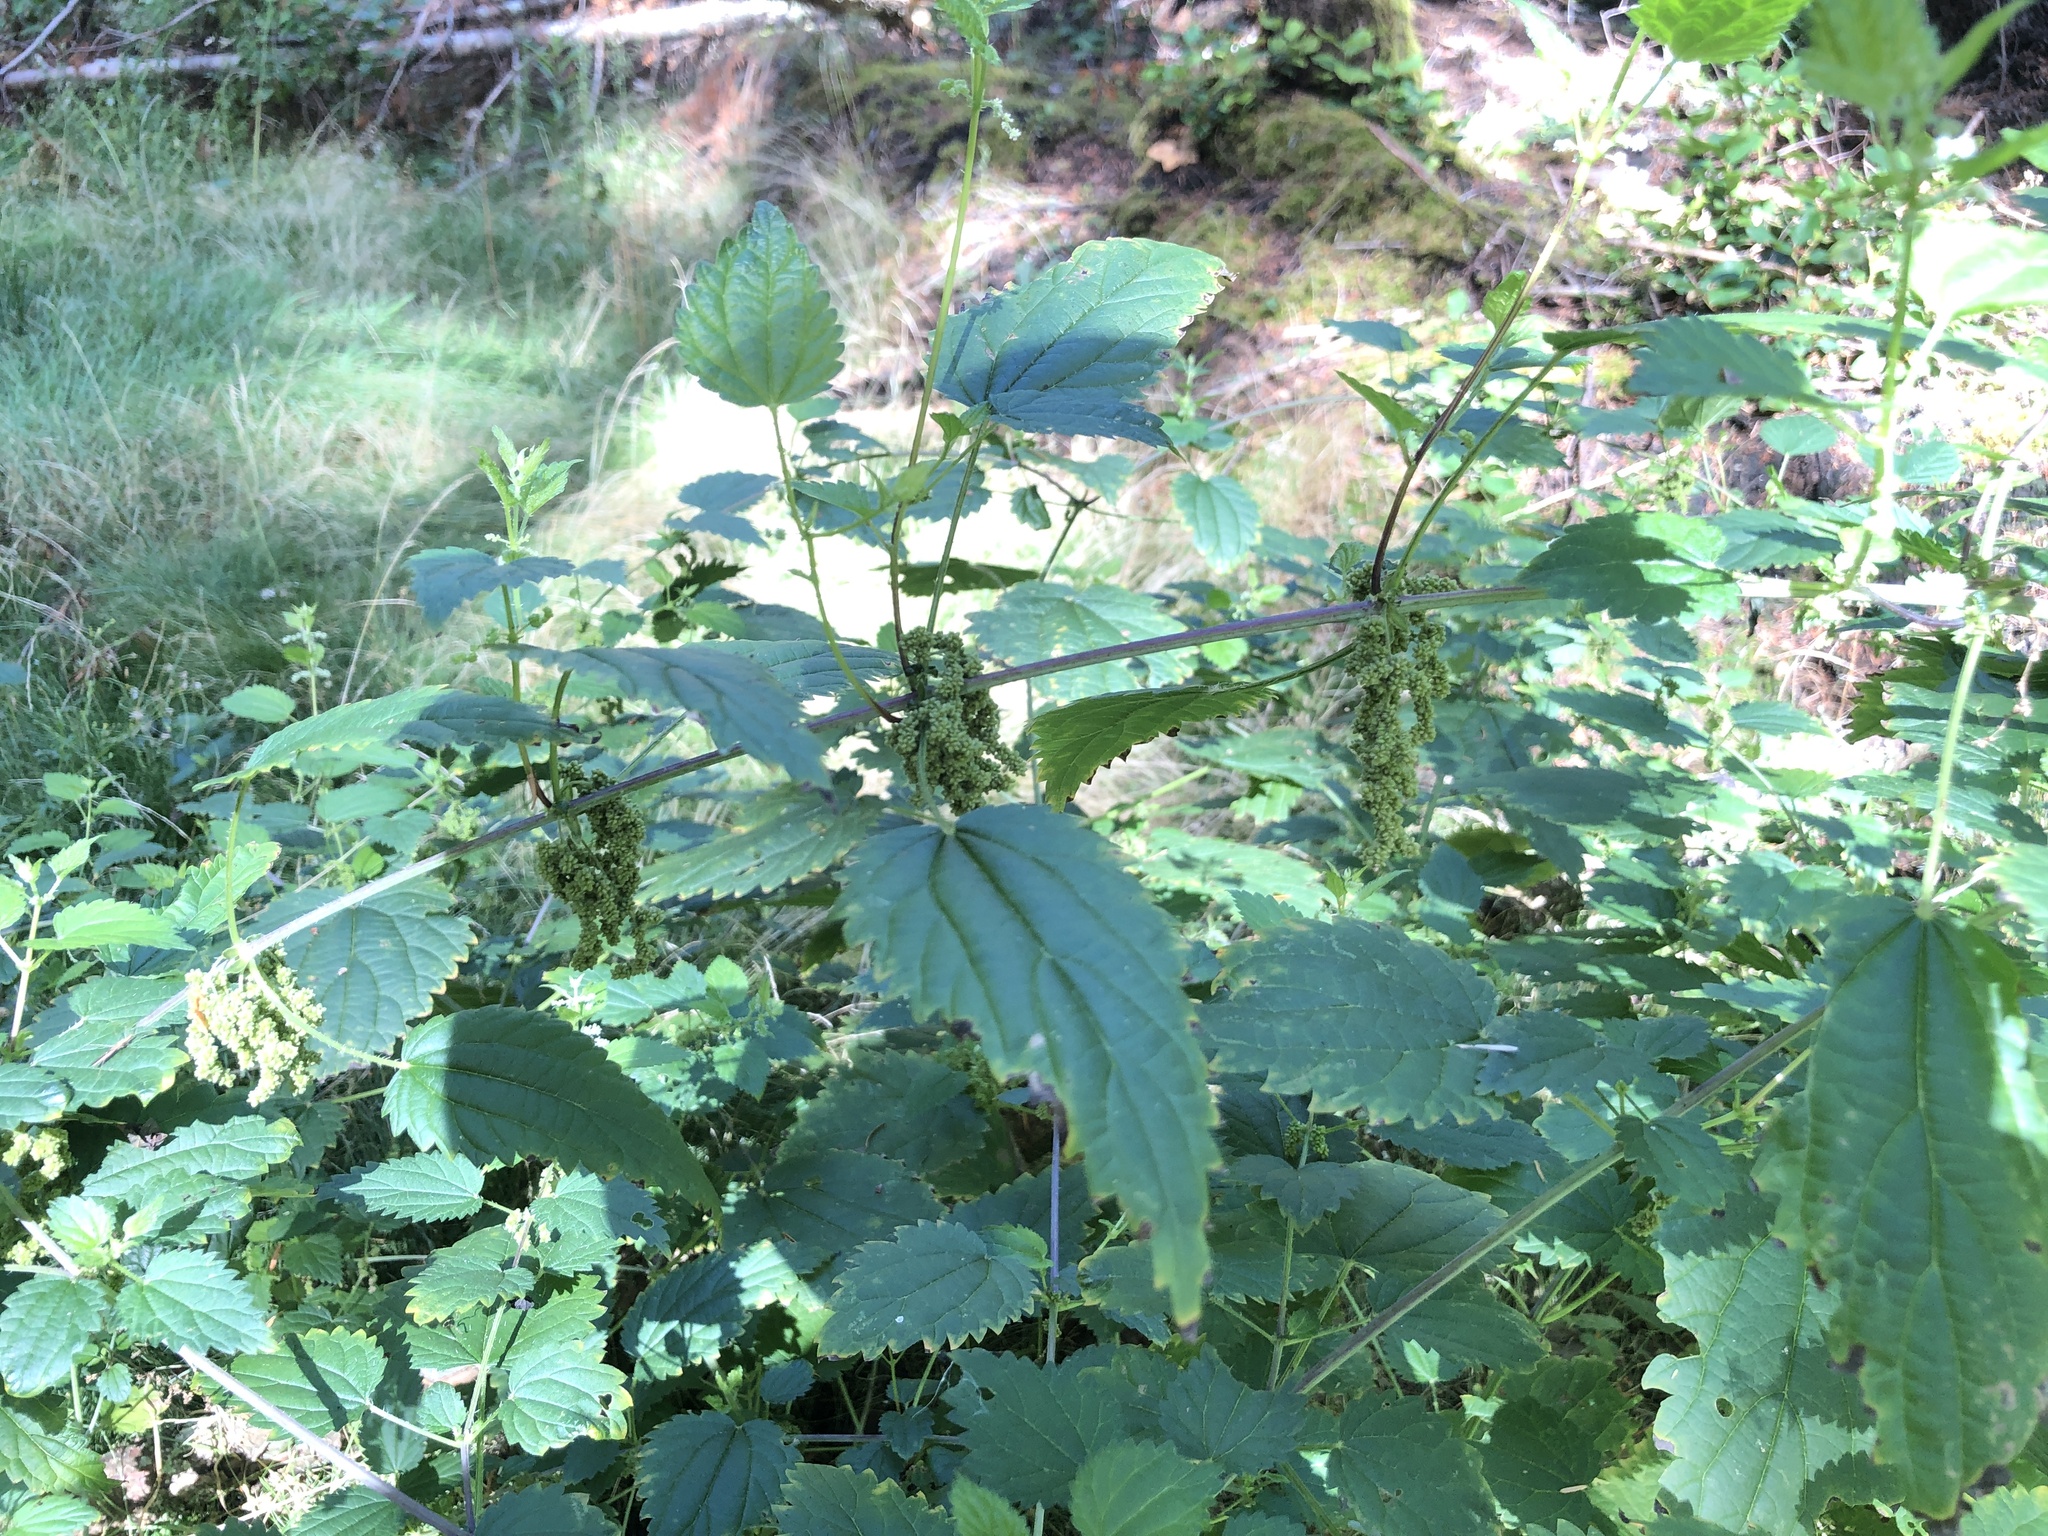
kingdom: Plantae
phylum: Tracheophyta
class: Magnoliopsida
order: Rosales
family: Urticaceae
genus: Urtica
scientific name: Urtica dioica
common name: Common nettle
